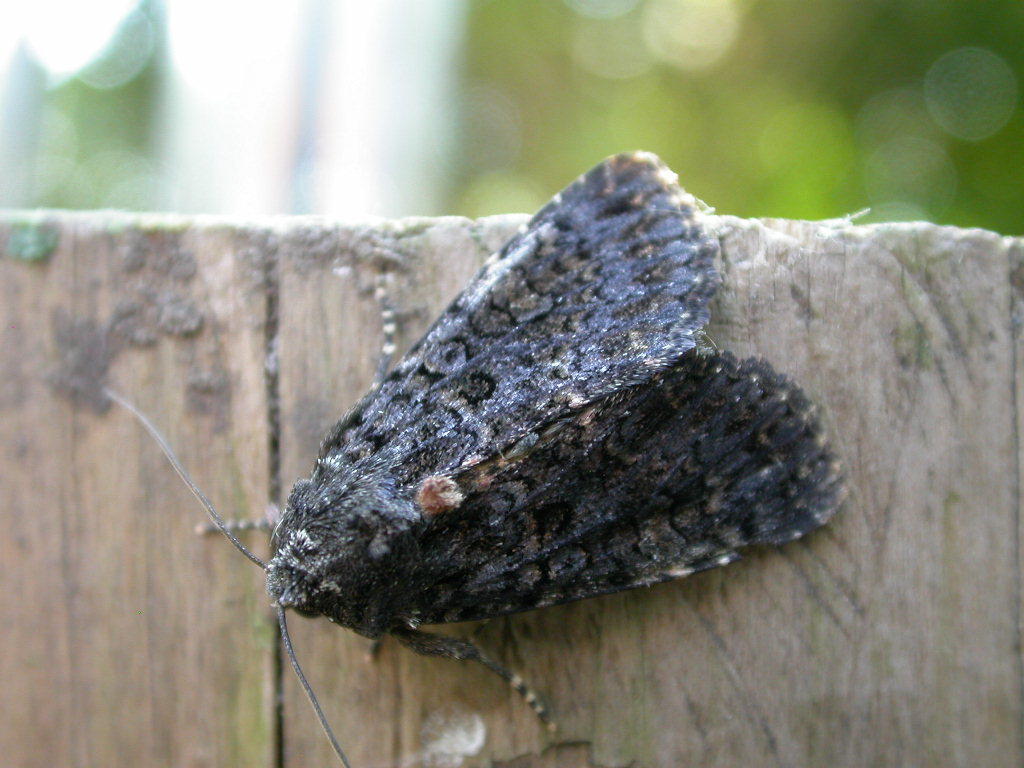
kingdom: Animalia
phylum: Arthropoda
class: Insecta
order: Lepidoptera
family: Noctuidae
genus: Melanchra
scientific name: Melanchra persicariae
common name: Dot moth
